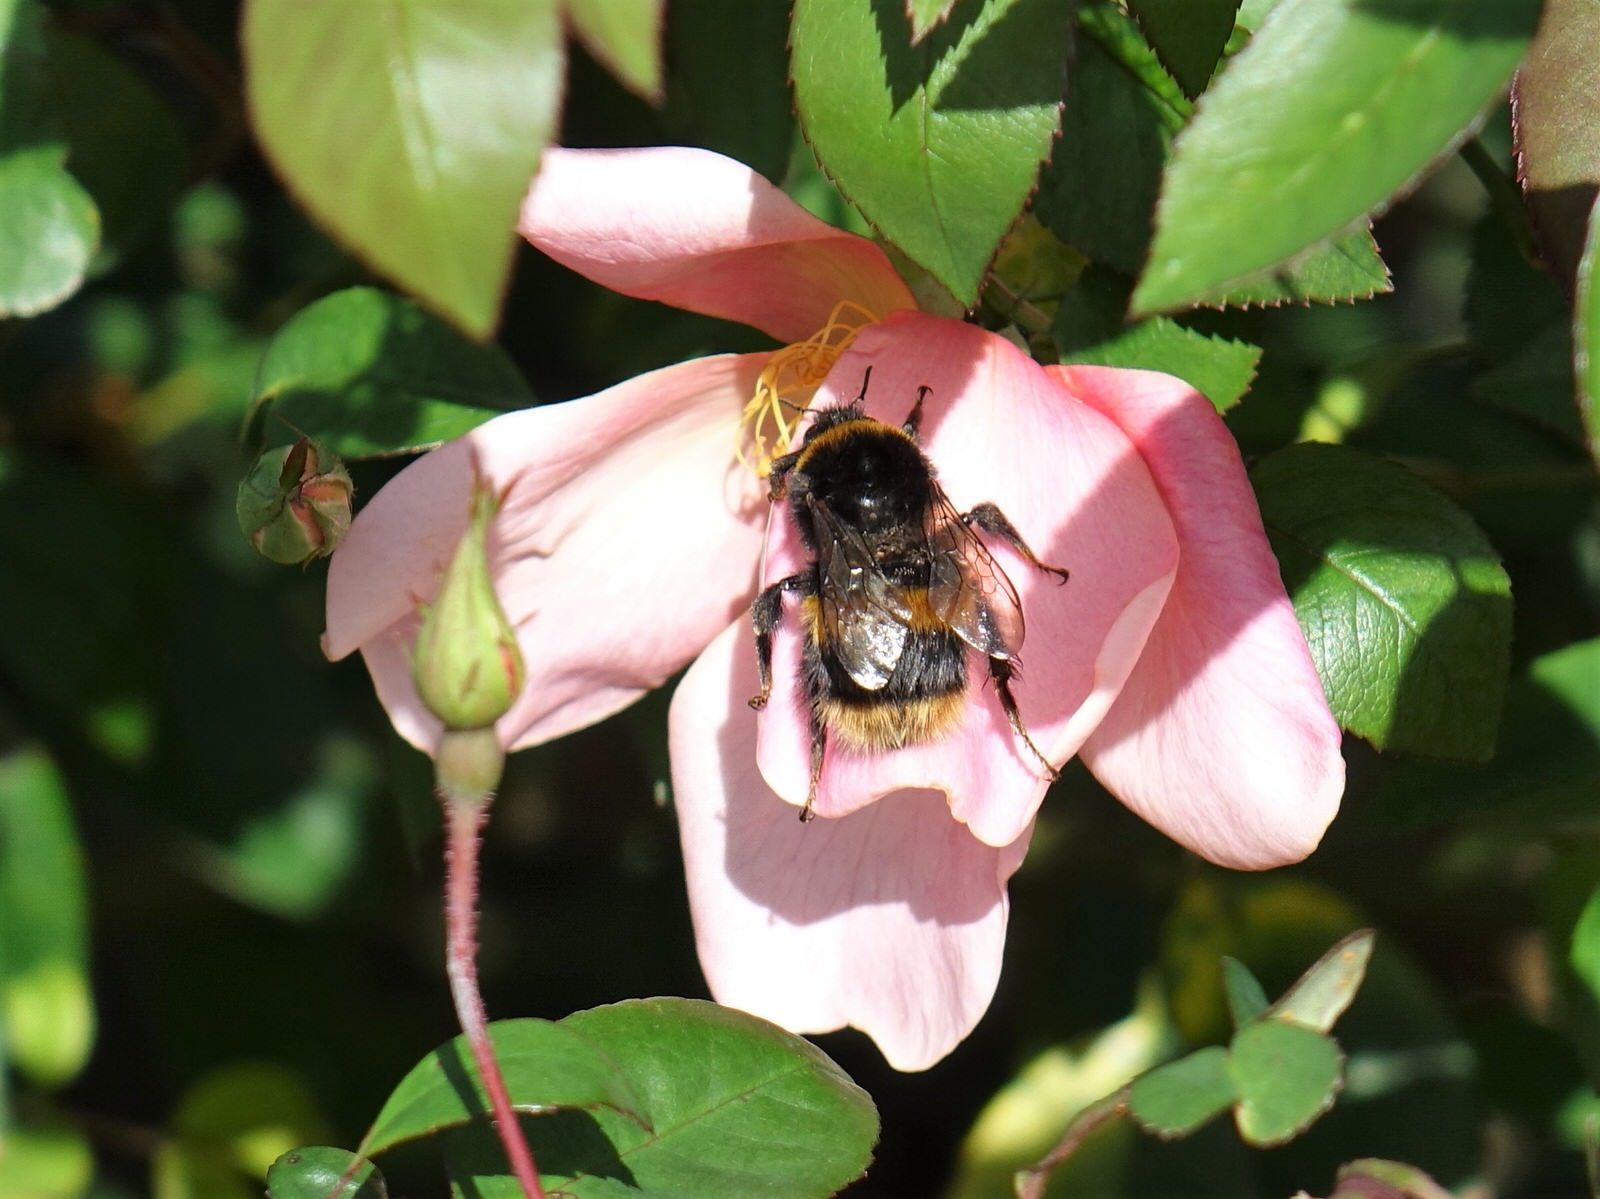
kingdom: Animalia
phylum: Arthropoda
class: Insecta
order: Hymenoptera
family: Apidae
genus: Bombus
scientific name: Bombus terrestris
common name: Buff-tailed bumblebee
